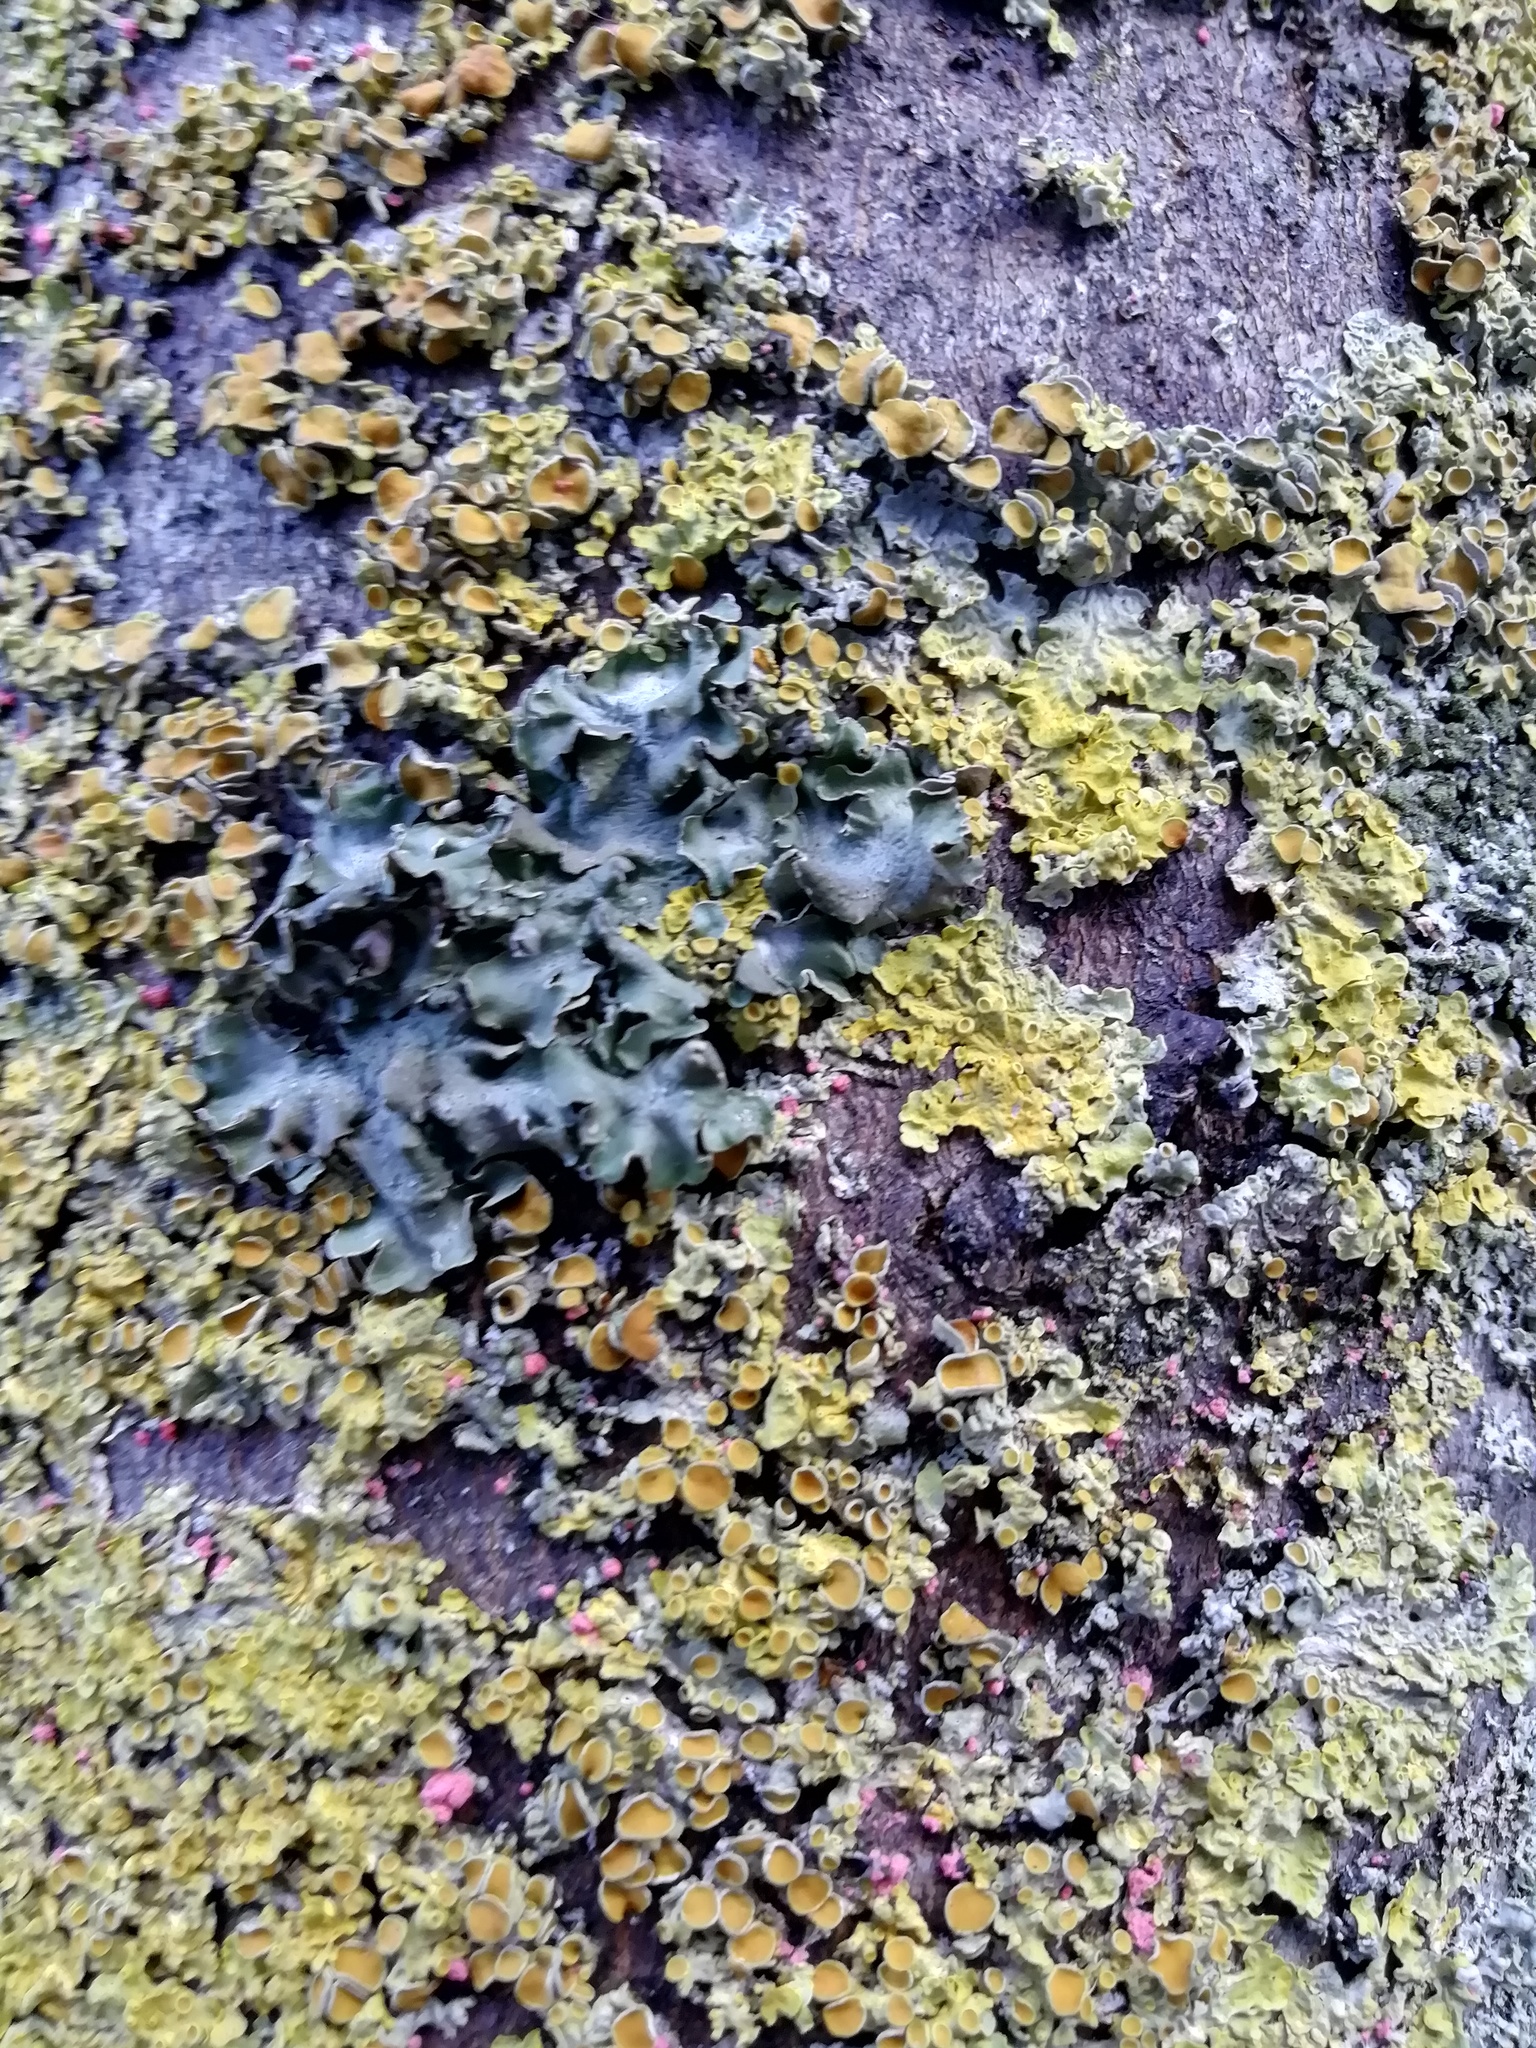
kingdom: Fungi
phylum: Ascomycota
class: Lecanoromycetes
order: Lecanorales
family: Parmeliaceae
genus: Pleurosticta
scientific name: Pleurosticta acetabulum
